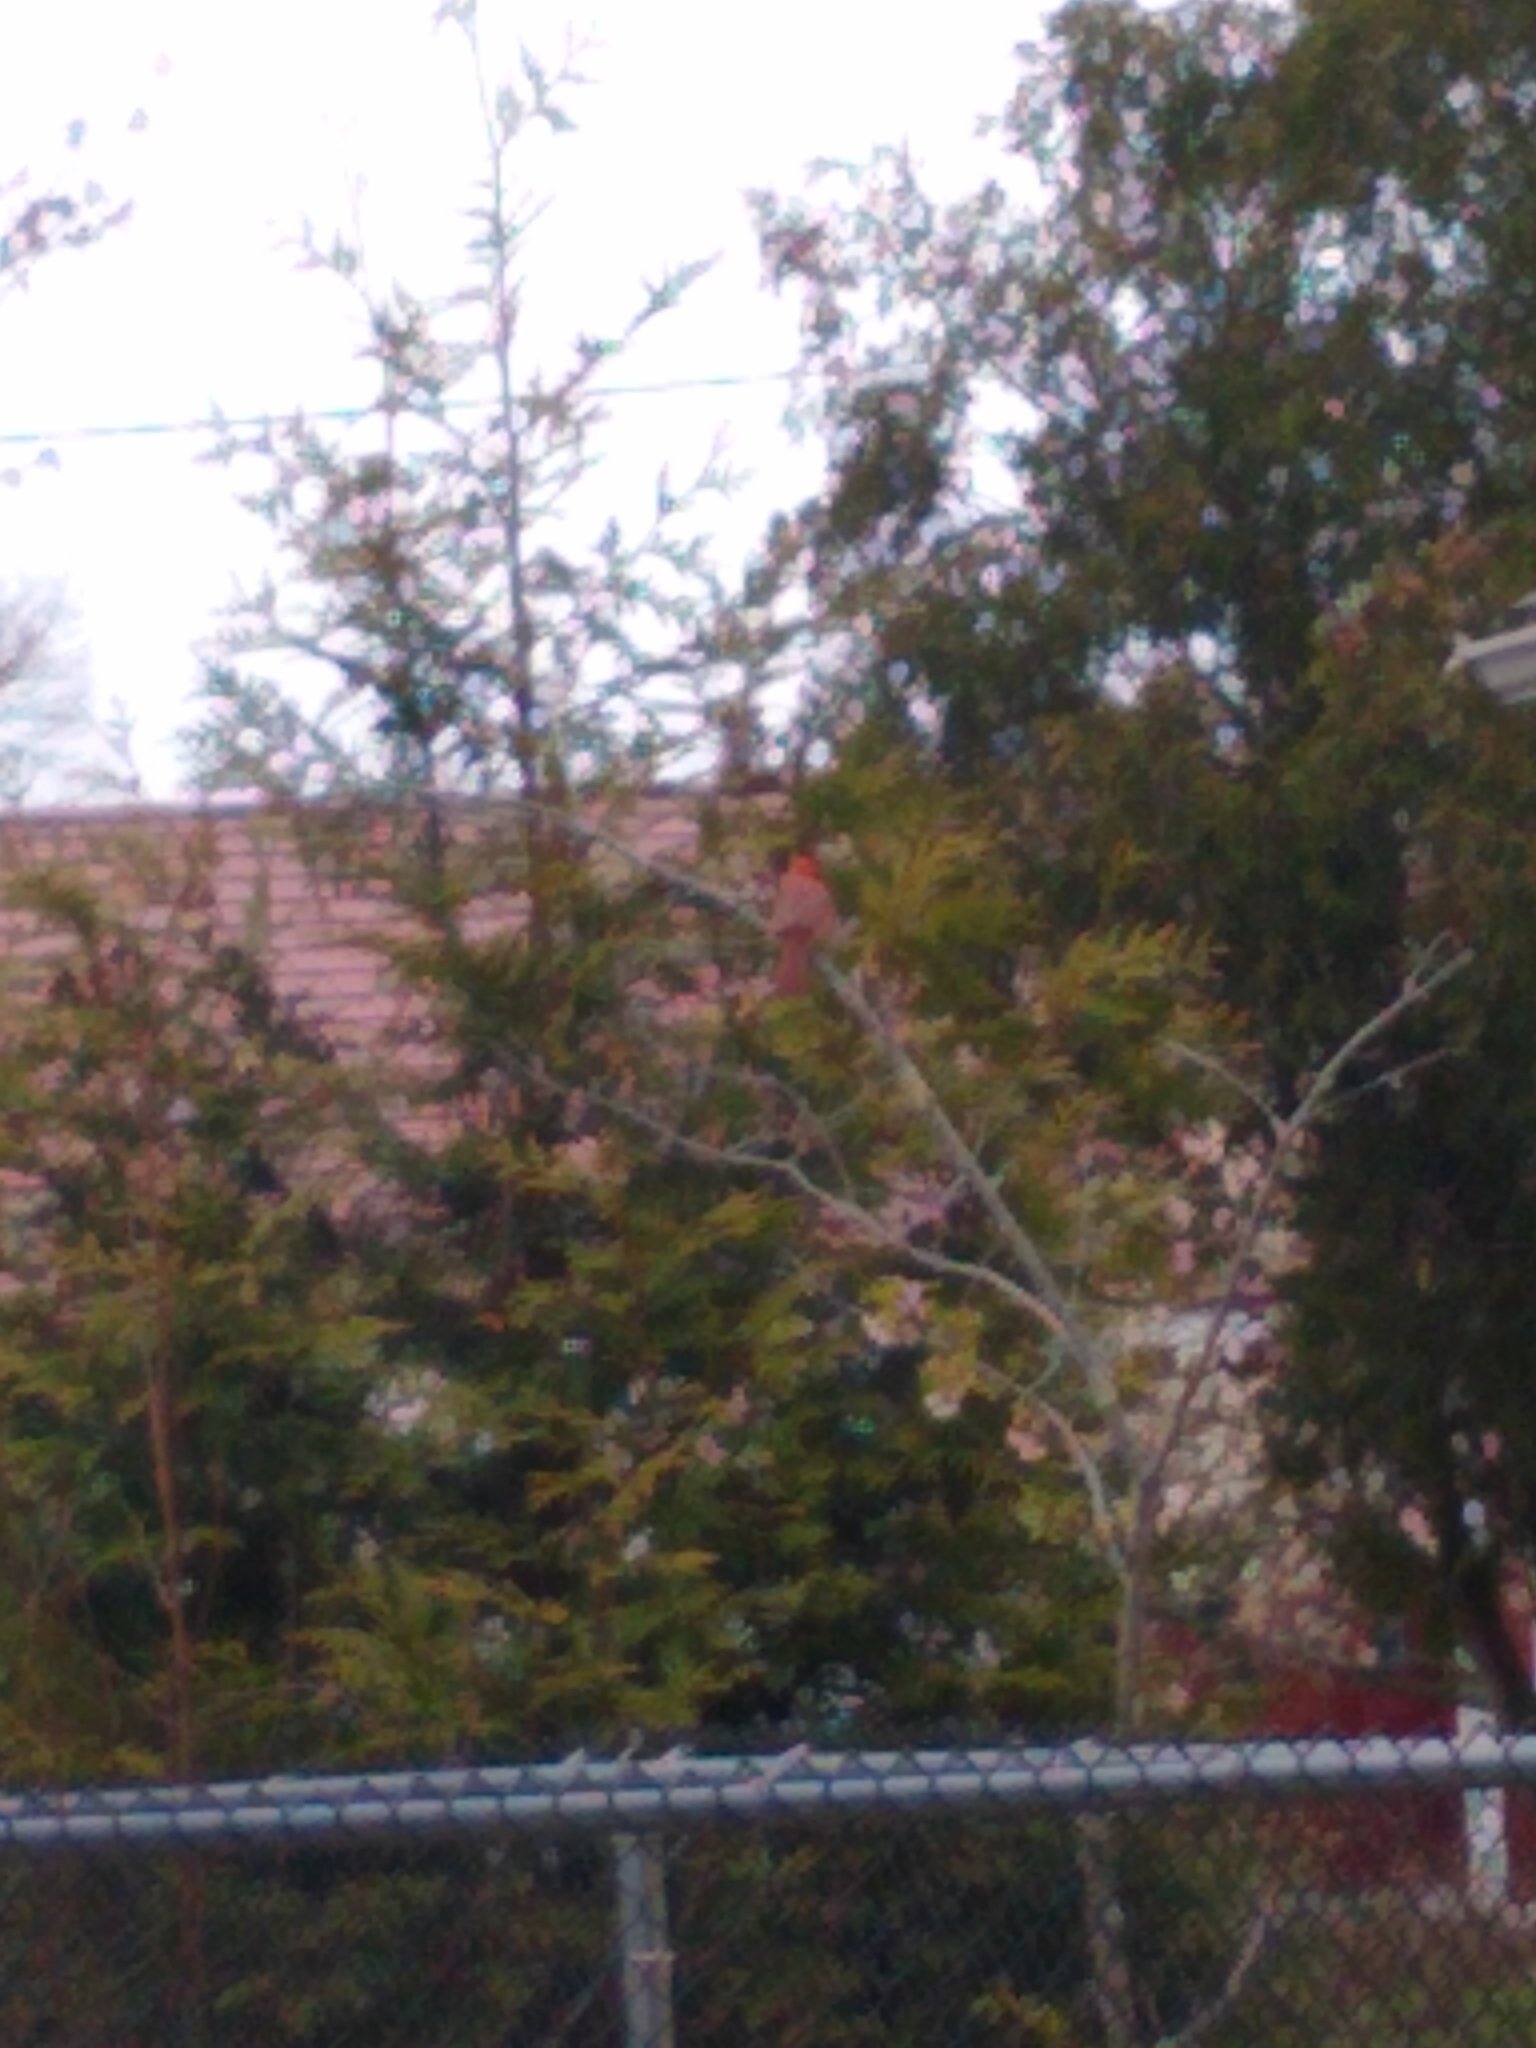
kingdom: Animalia
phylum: Chordata
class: Aves
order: Passeriformes
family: Cardinalidae
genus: Cardinalis
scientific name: Cardinalis cardinalis
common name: Northern cardinal
